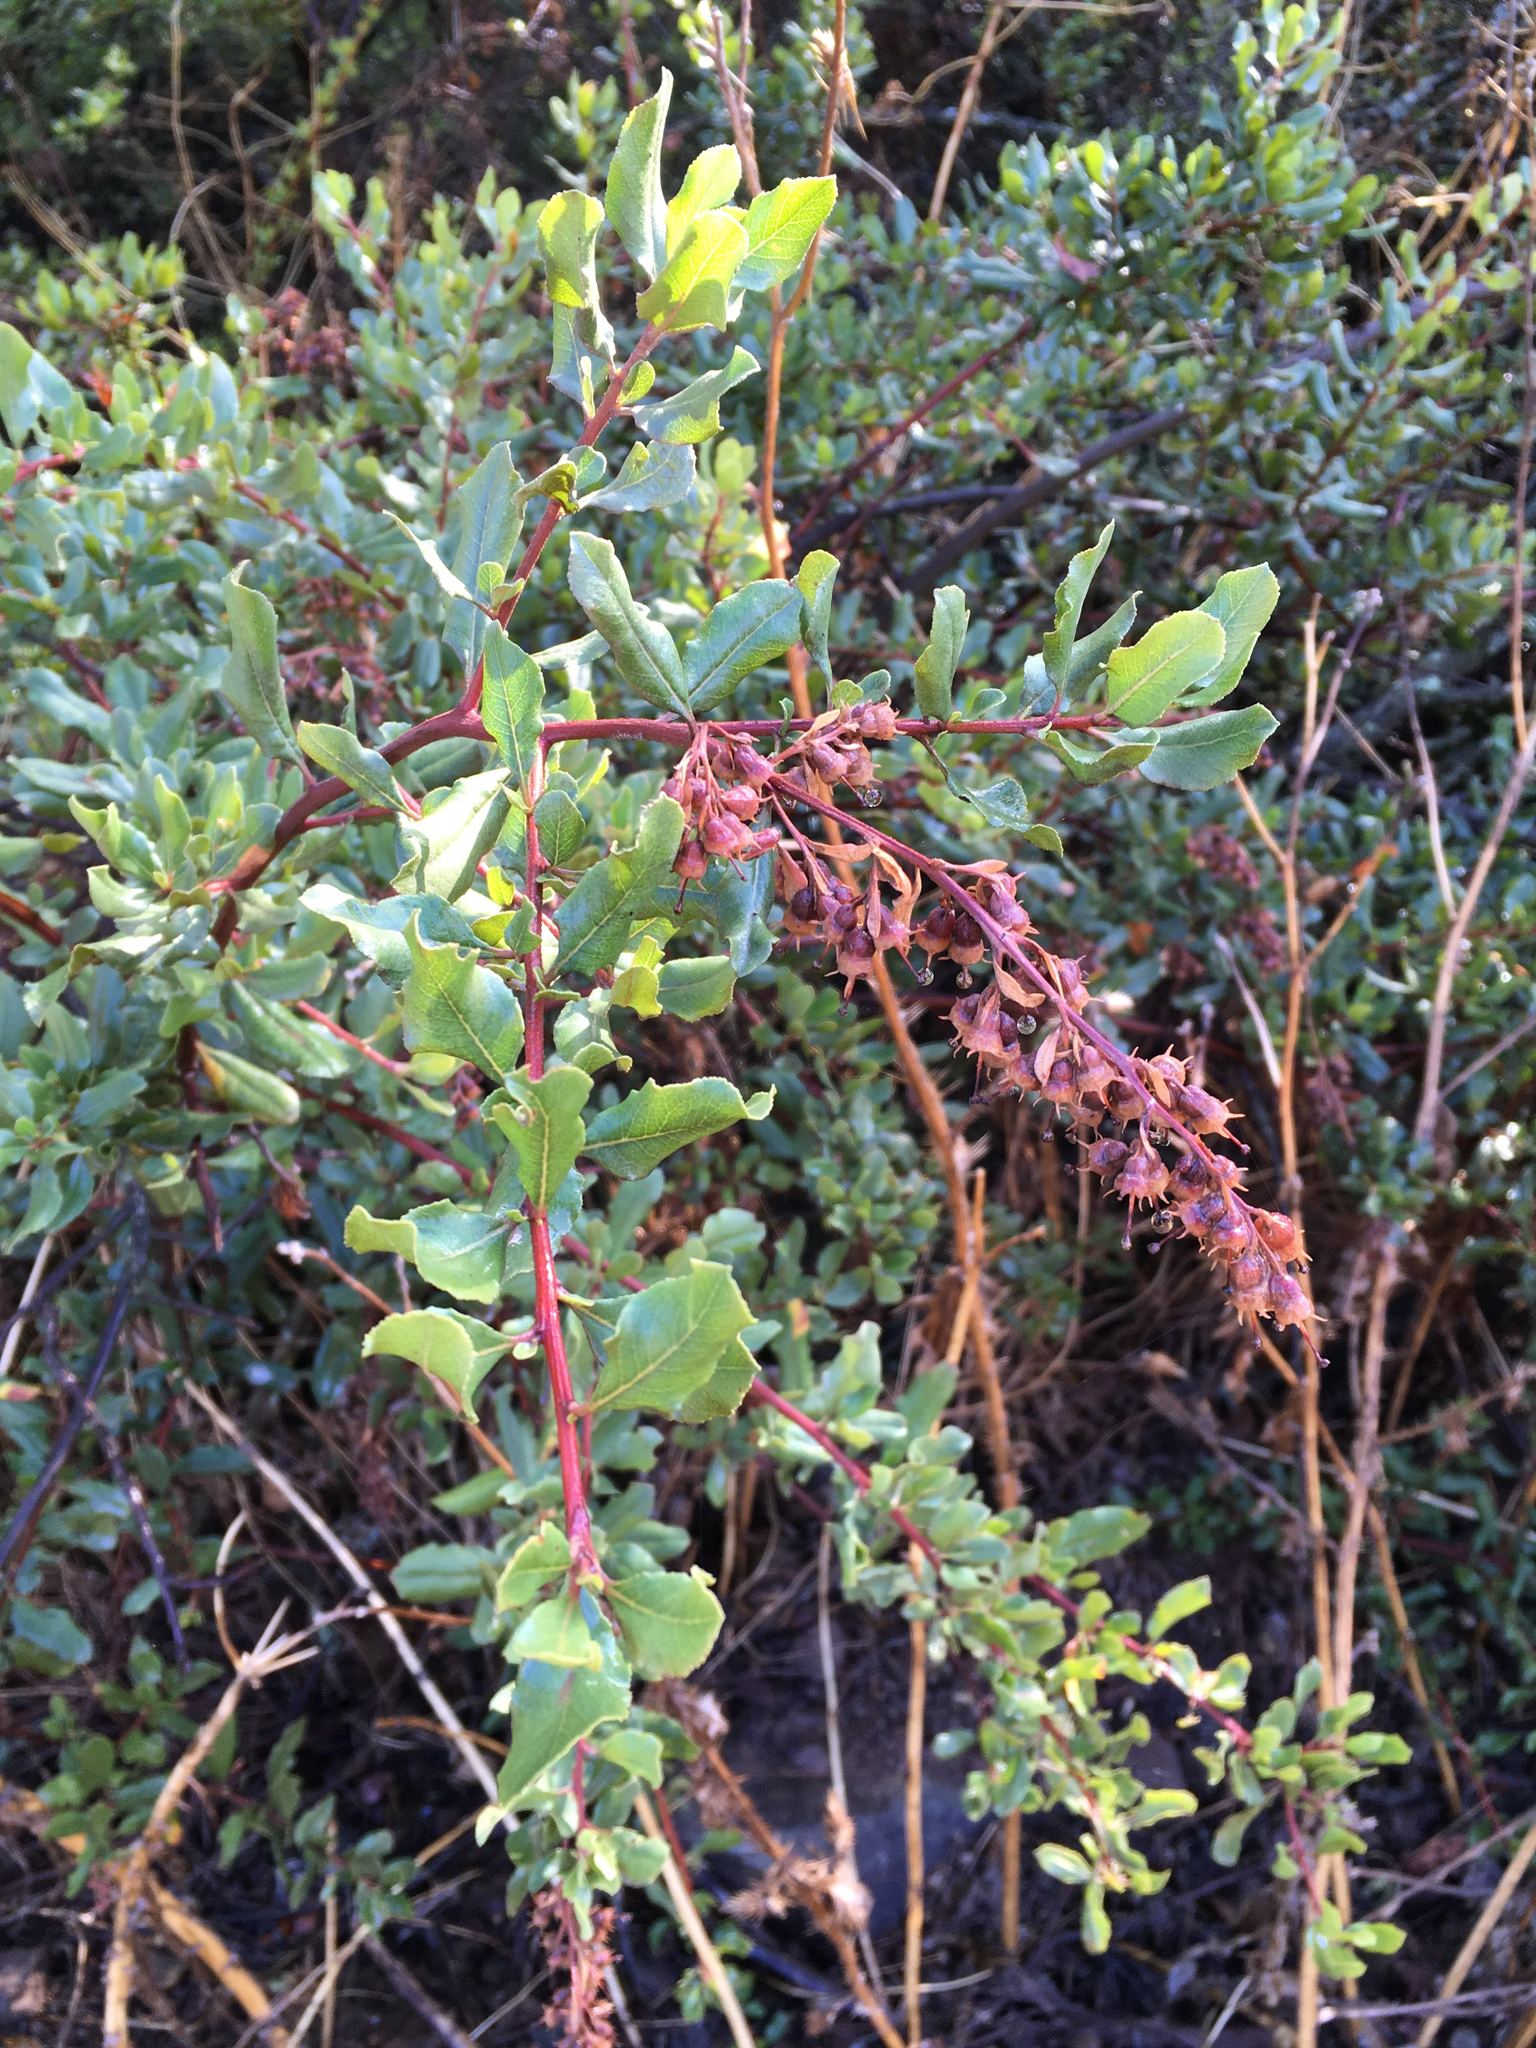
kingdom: Plantae
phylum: Tracheophyta
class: Magnoliopsida
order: Escalloniales
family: Escalloniaceae
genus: Escallonia
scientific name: Escallonia illinita
